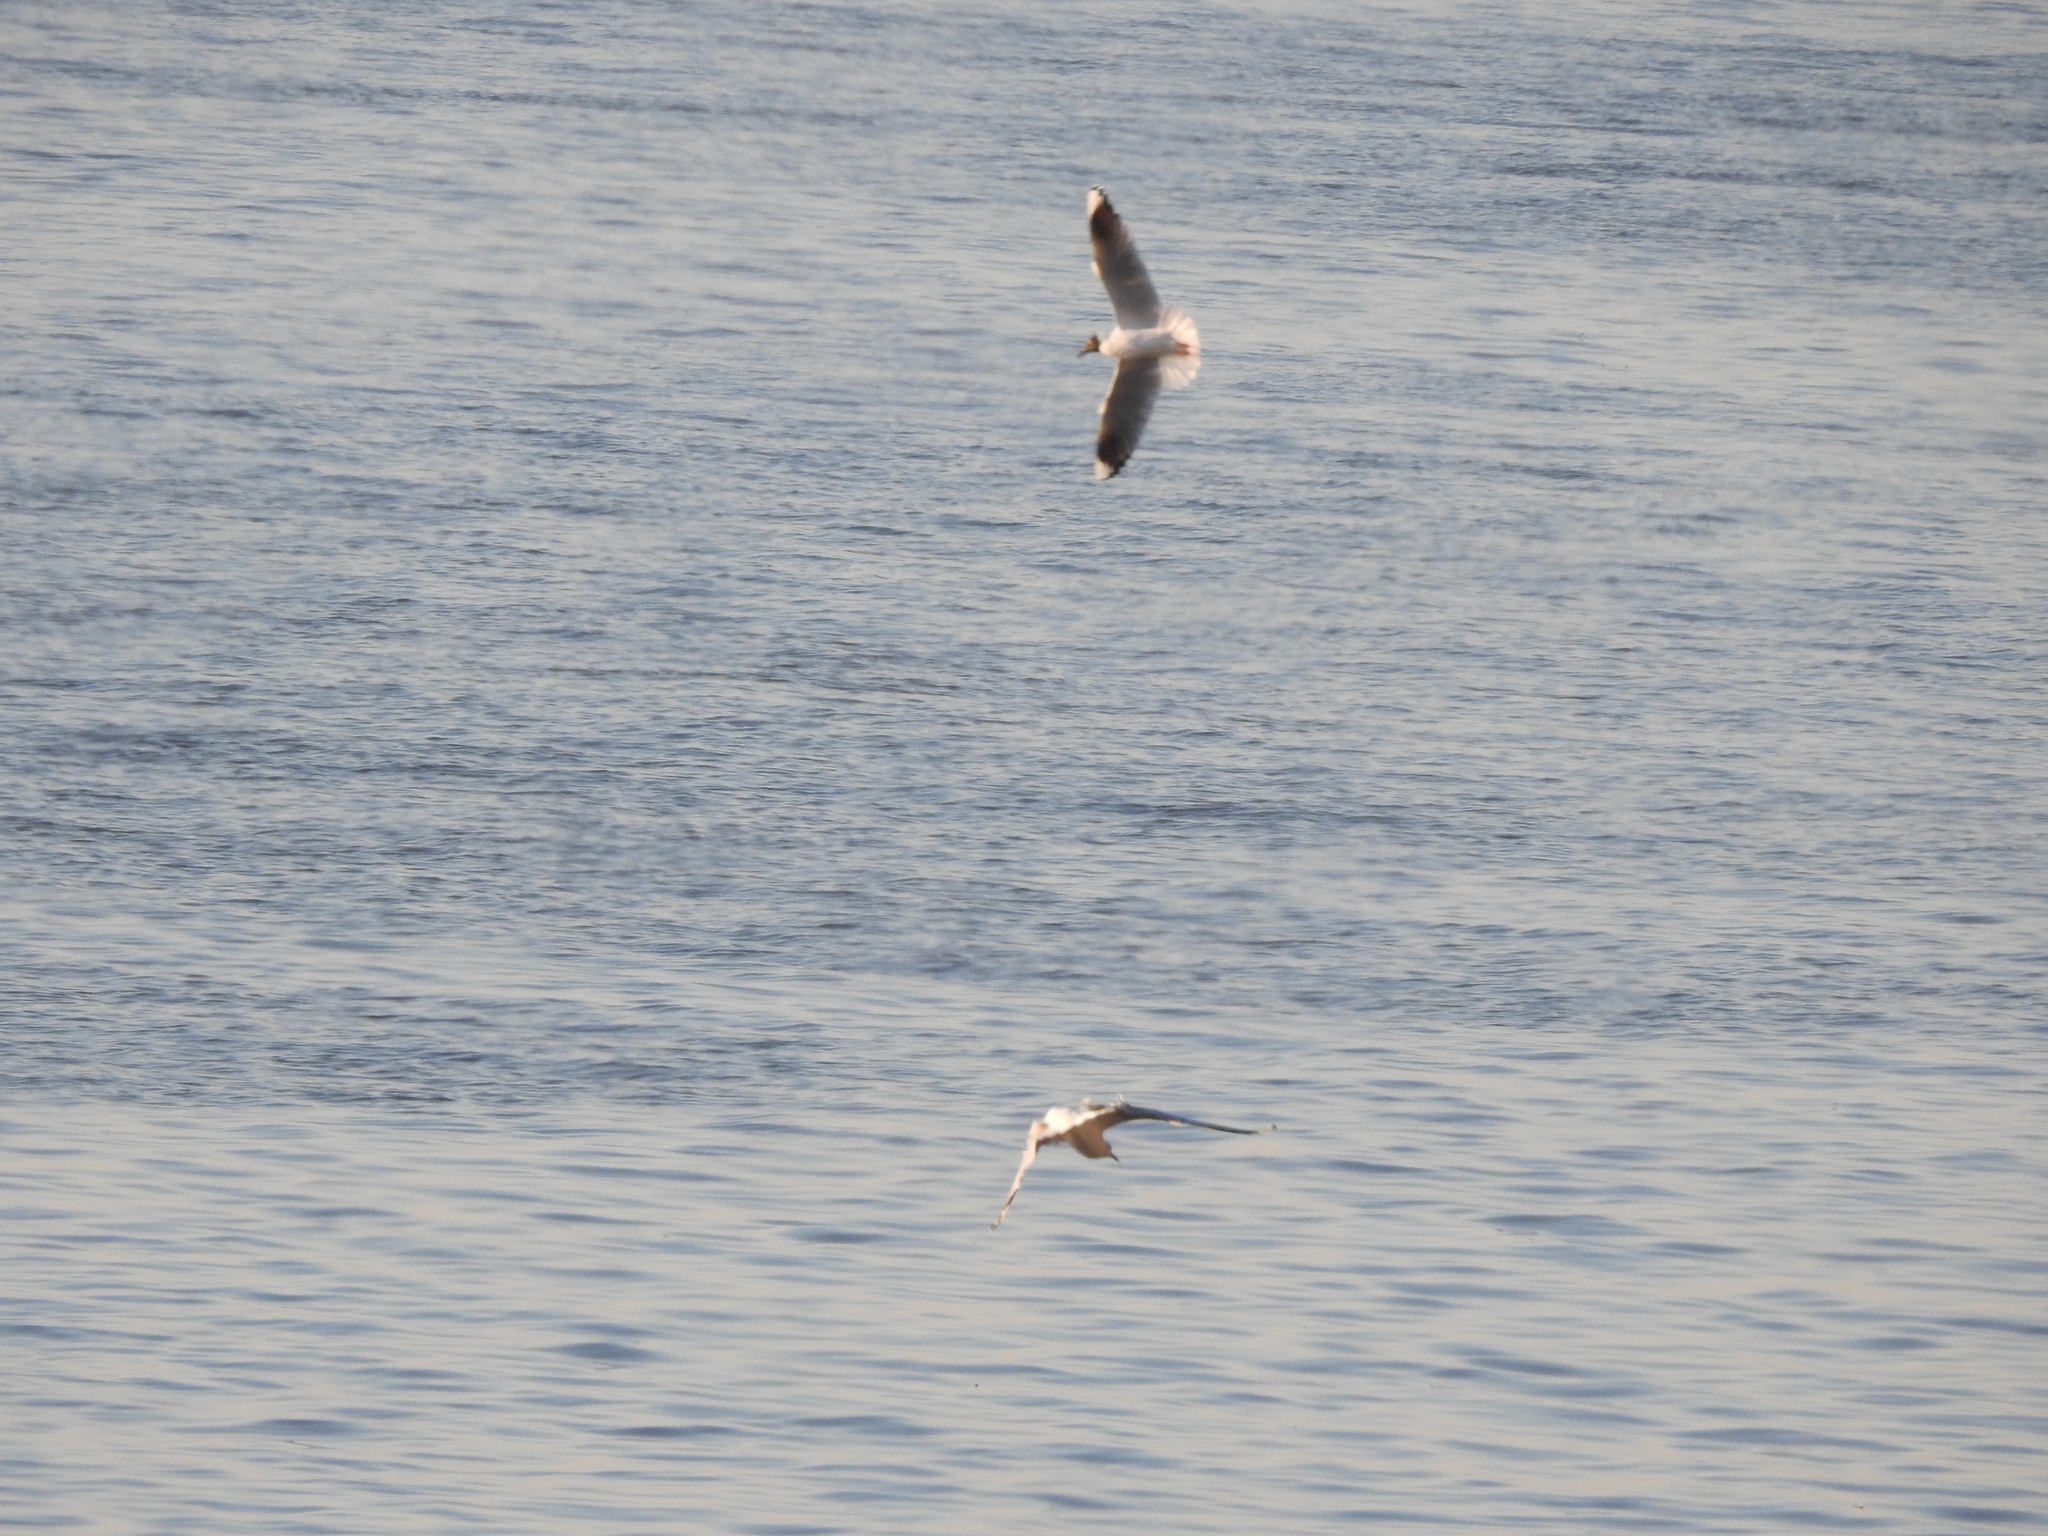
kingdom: Animalia
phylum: Chordata
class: Aves
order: Charadriiformes
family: Laridae
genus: Chroicocephalus
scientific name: Chroicocephalus maculipennis
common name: Brown-hooded gull
